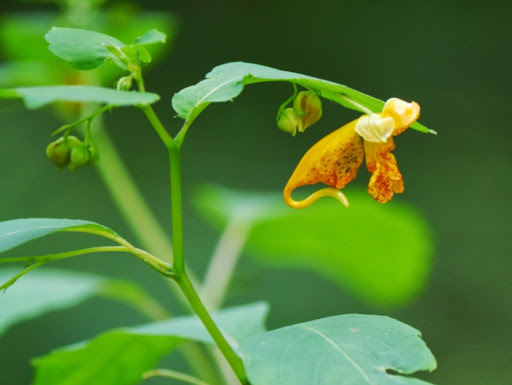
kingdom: Plantae
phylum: Tracheophyta
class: Magnoliopsida
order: Ericales
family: Balsaminaceae
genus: Impatiens
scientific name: Impatiens capensis
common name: Orange balsam
